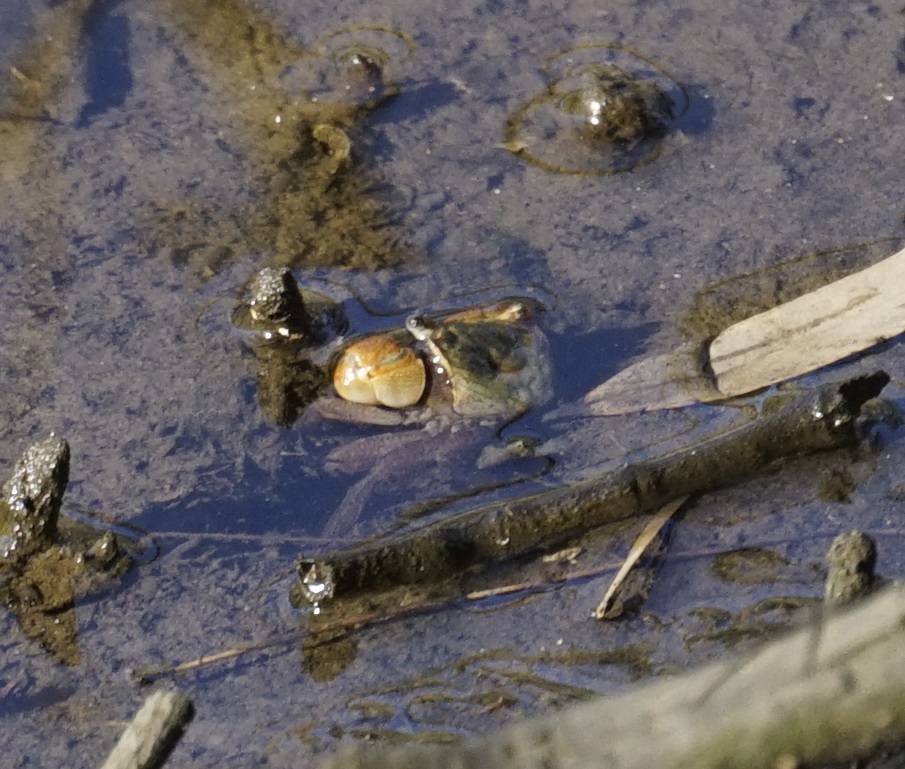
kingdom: Animalia
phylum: Arthropoda
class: Malacostraca
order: Decapoda
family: Sesarmidae
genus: Parasesarma
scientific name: Parasesarma erythodactylum
